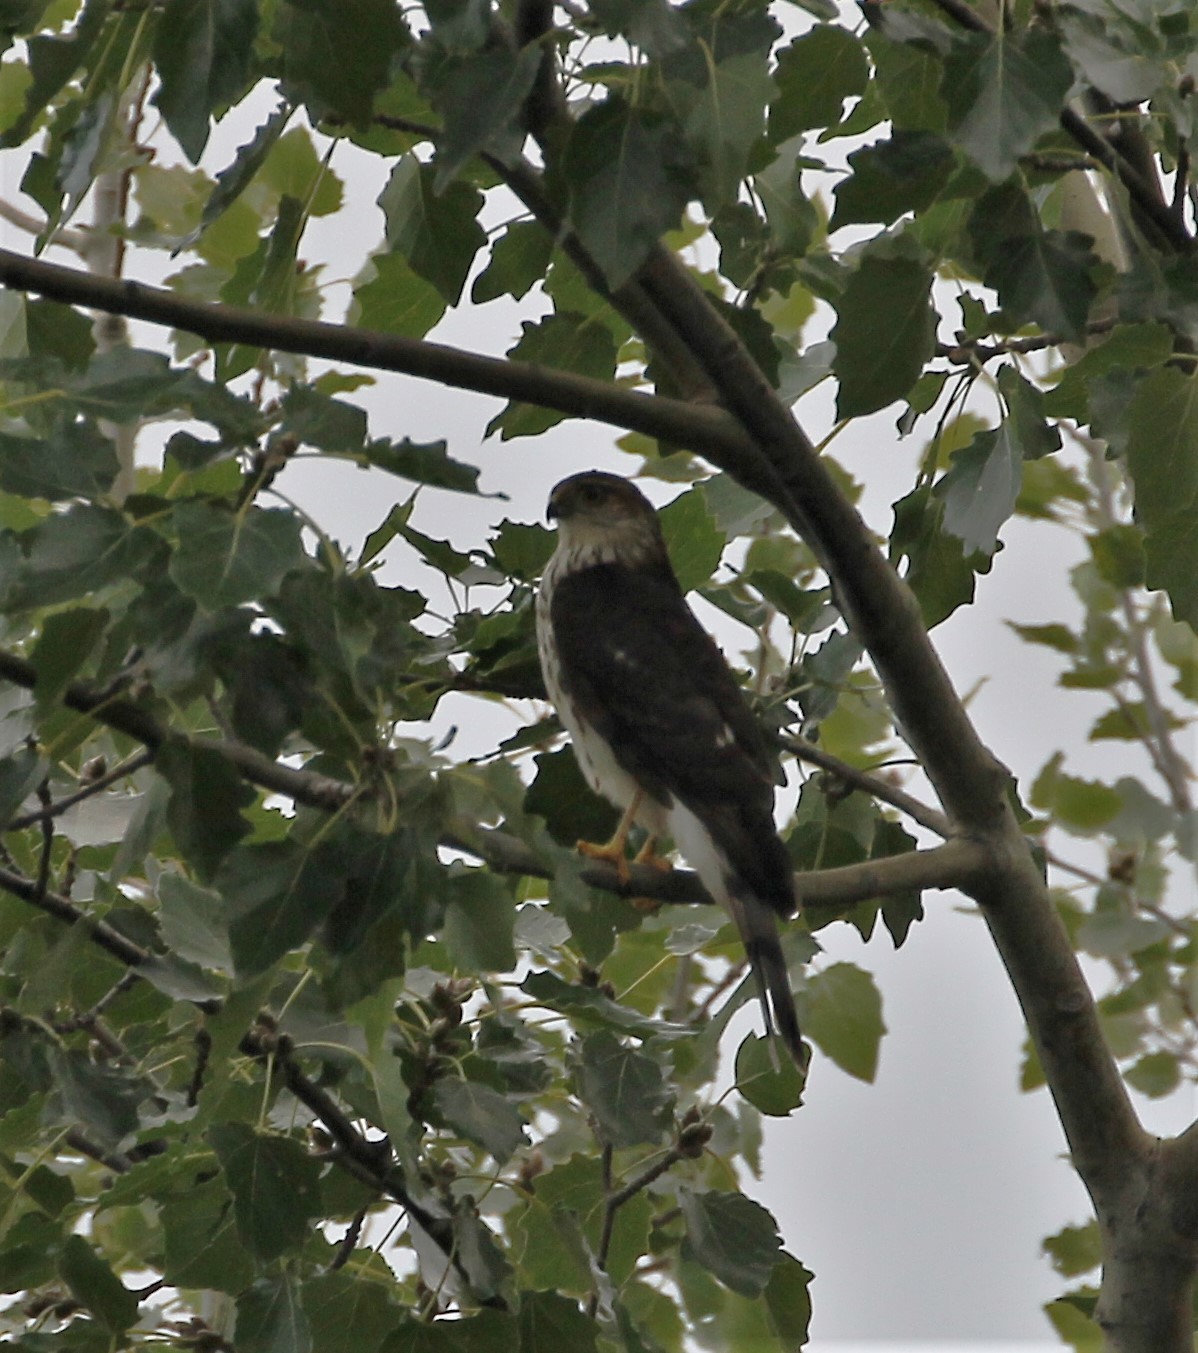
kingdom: Animalia
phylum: Chordata
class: Aves
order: Accipitriformes
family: Accipitridae
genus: Accipiter
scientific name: Accipiter striatus
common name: Sharp-shinned hawk
